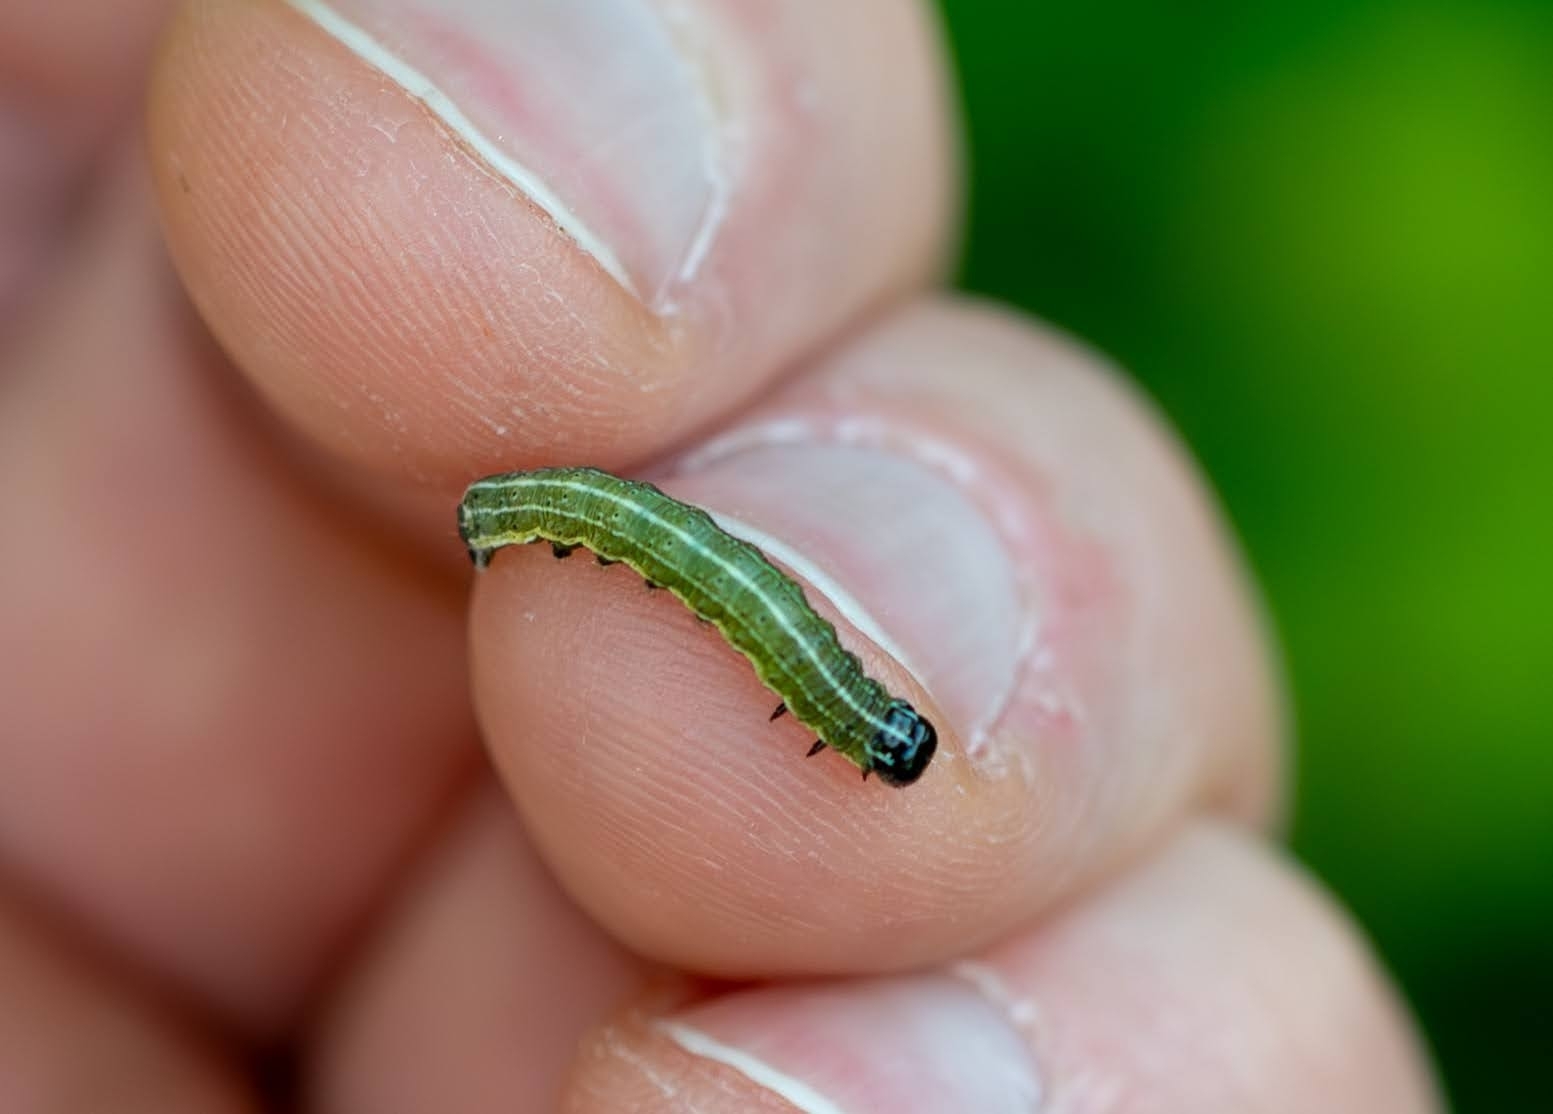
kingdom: Animalia
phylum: Arthropoda
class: Insecta
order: Lepidoptera
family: Noctuidae
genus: Orthosia
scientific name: Orthosia cruda
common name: Small quaker
